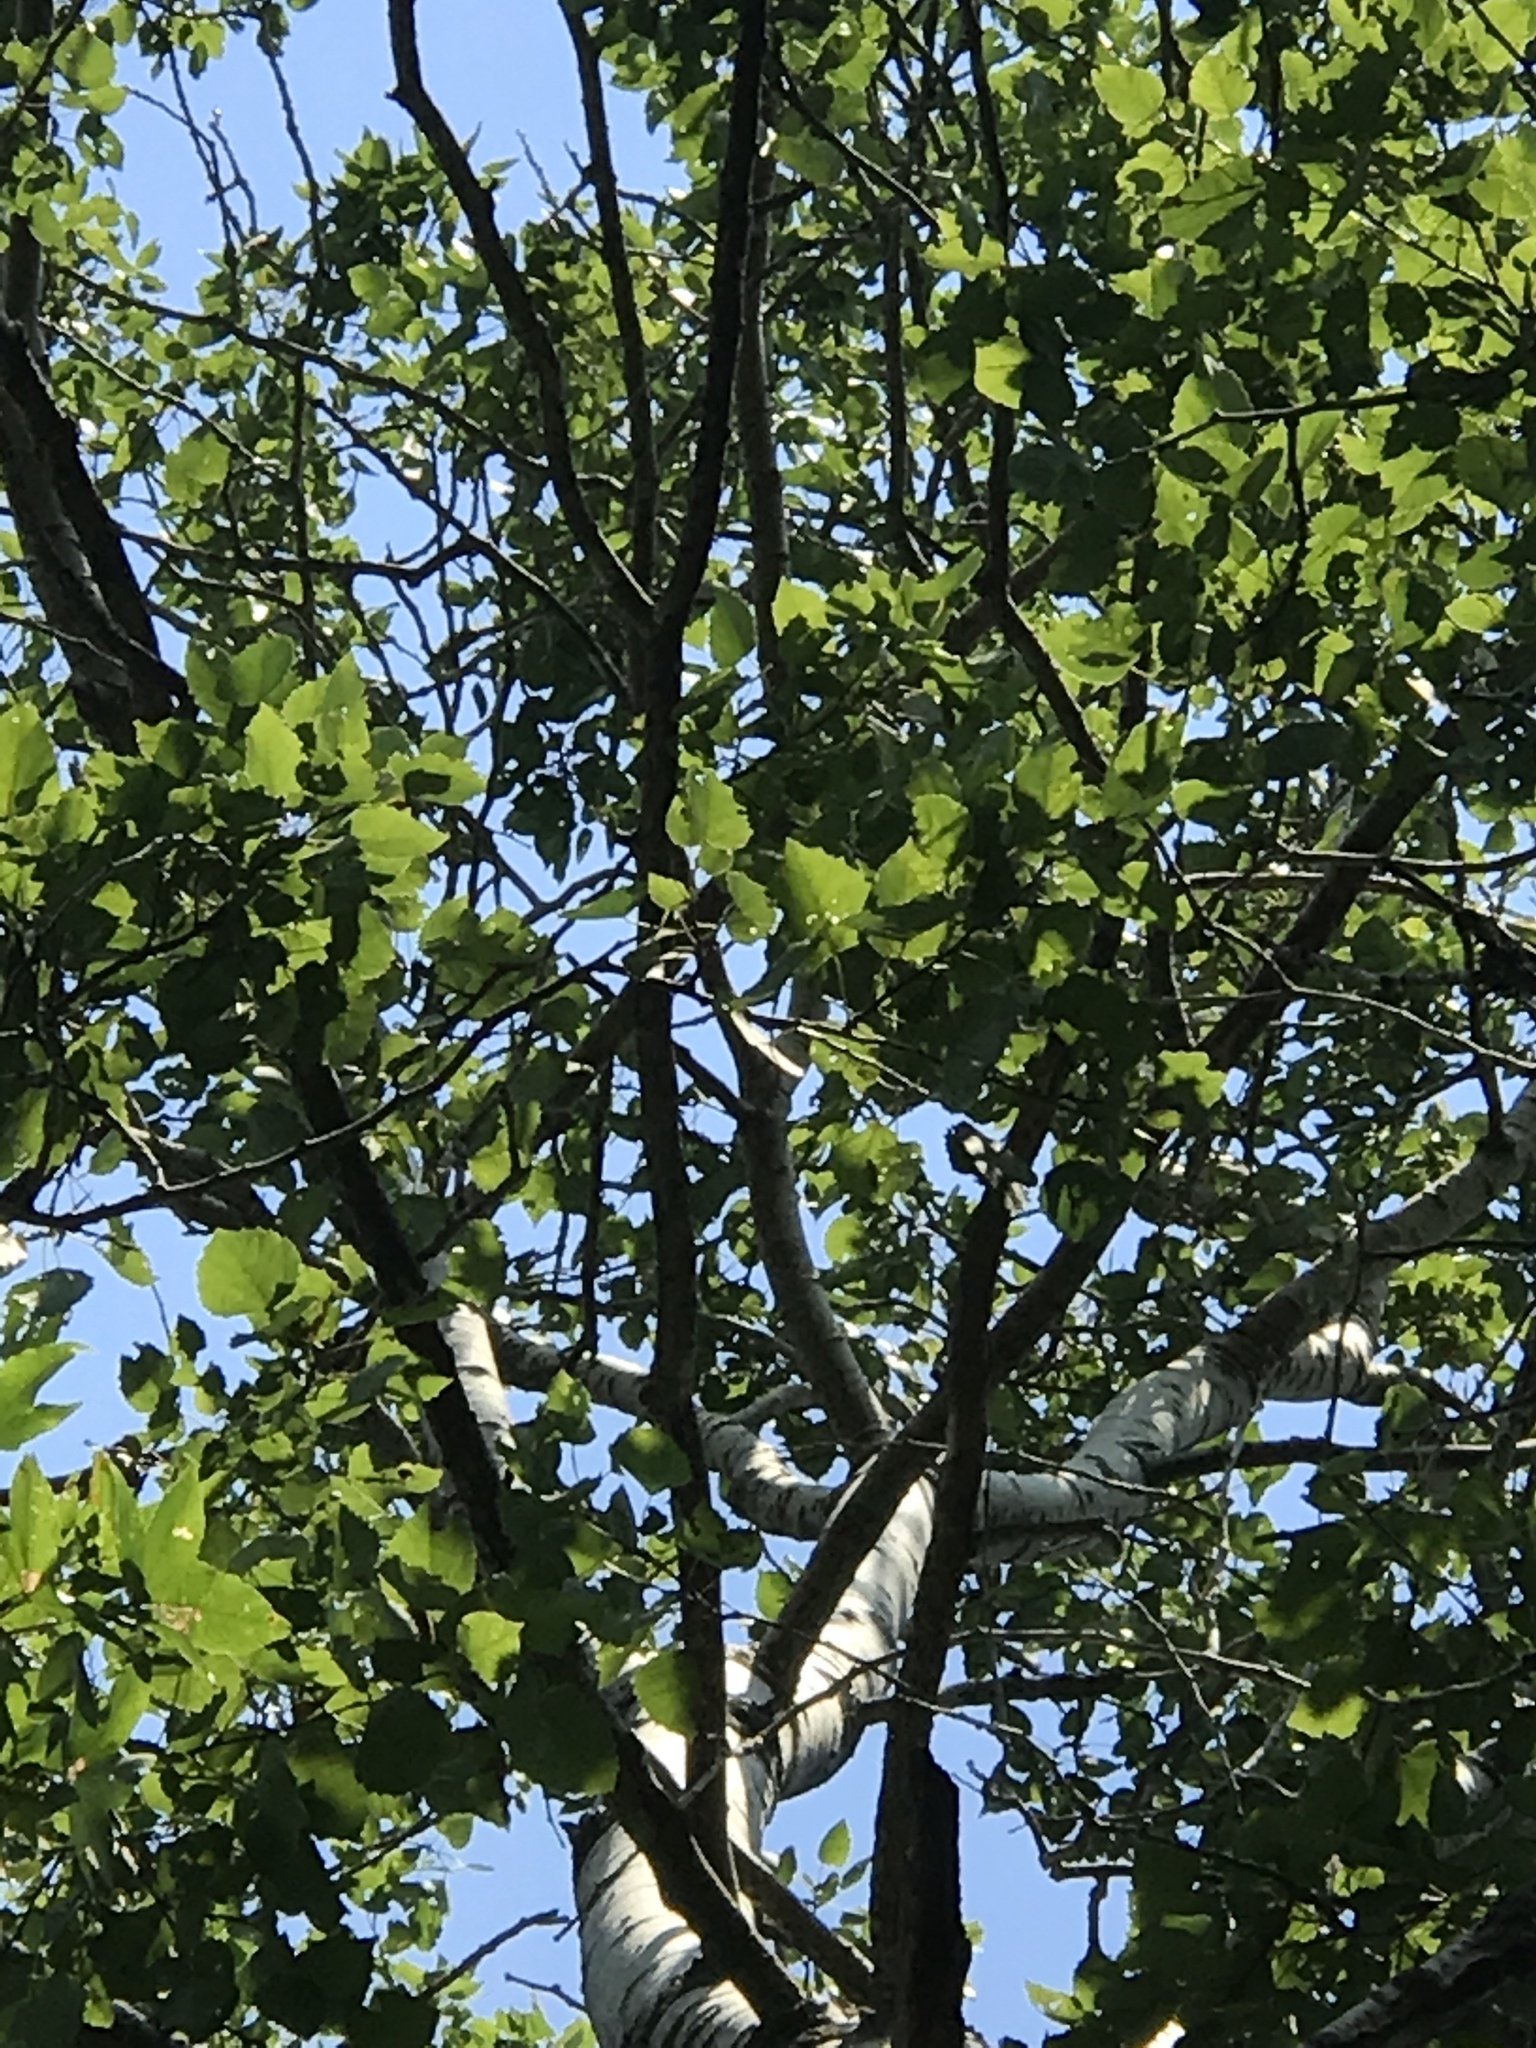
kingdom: Plantae
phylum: Tracheophyta
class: Magnoliopsida
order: Malpighiales
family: Salicaceae
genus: Populus
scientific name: Populus grandidentata
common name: Bigtooth aspen
